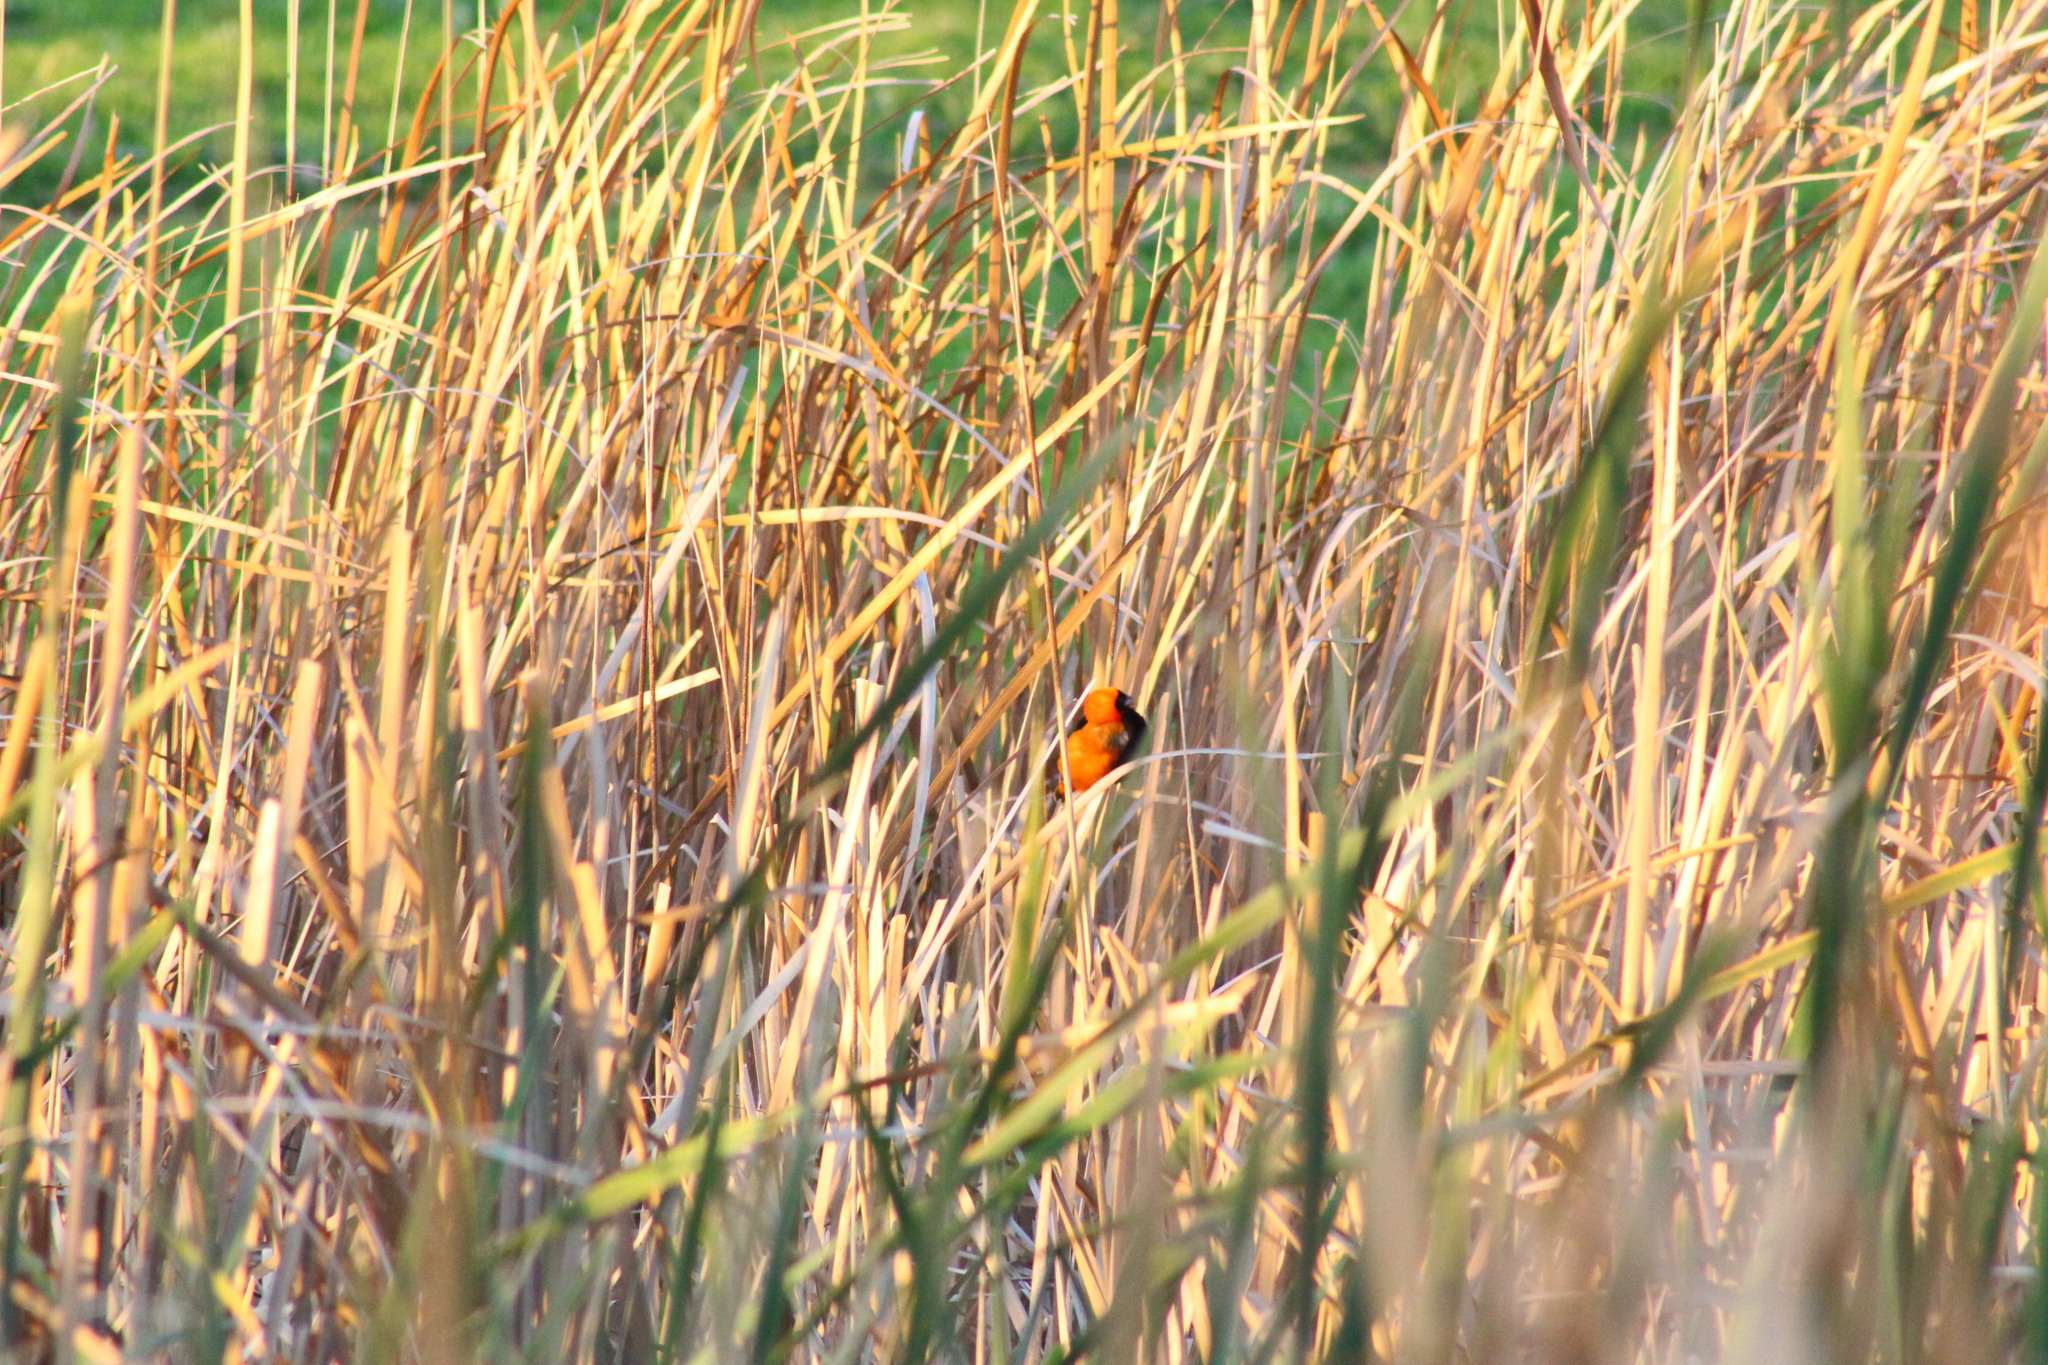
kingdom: Animalia
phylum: Chordata
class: Aves
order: Passeriformes
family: Ploceidae
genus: Euplectes
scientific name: Euplectes orix
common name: Southern red bishop
